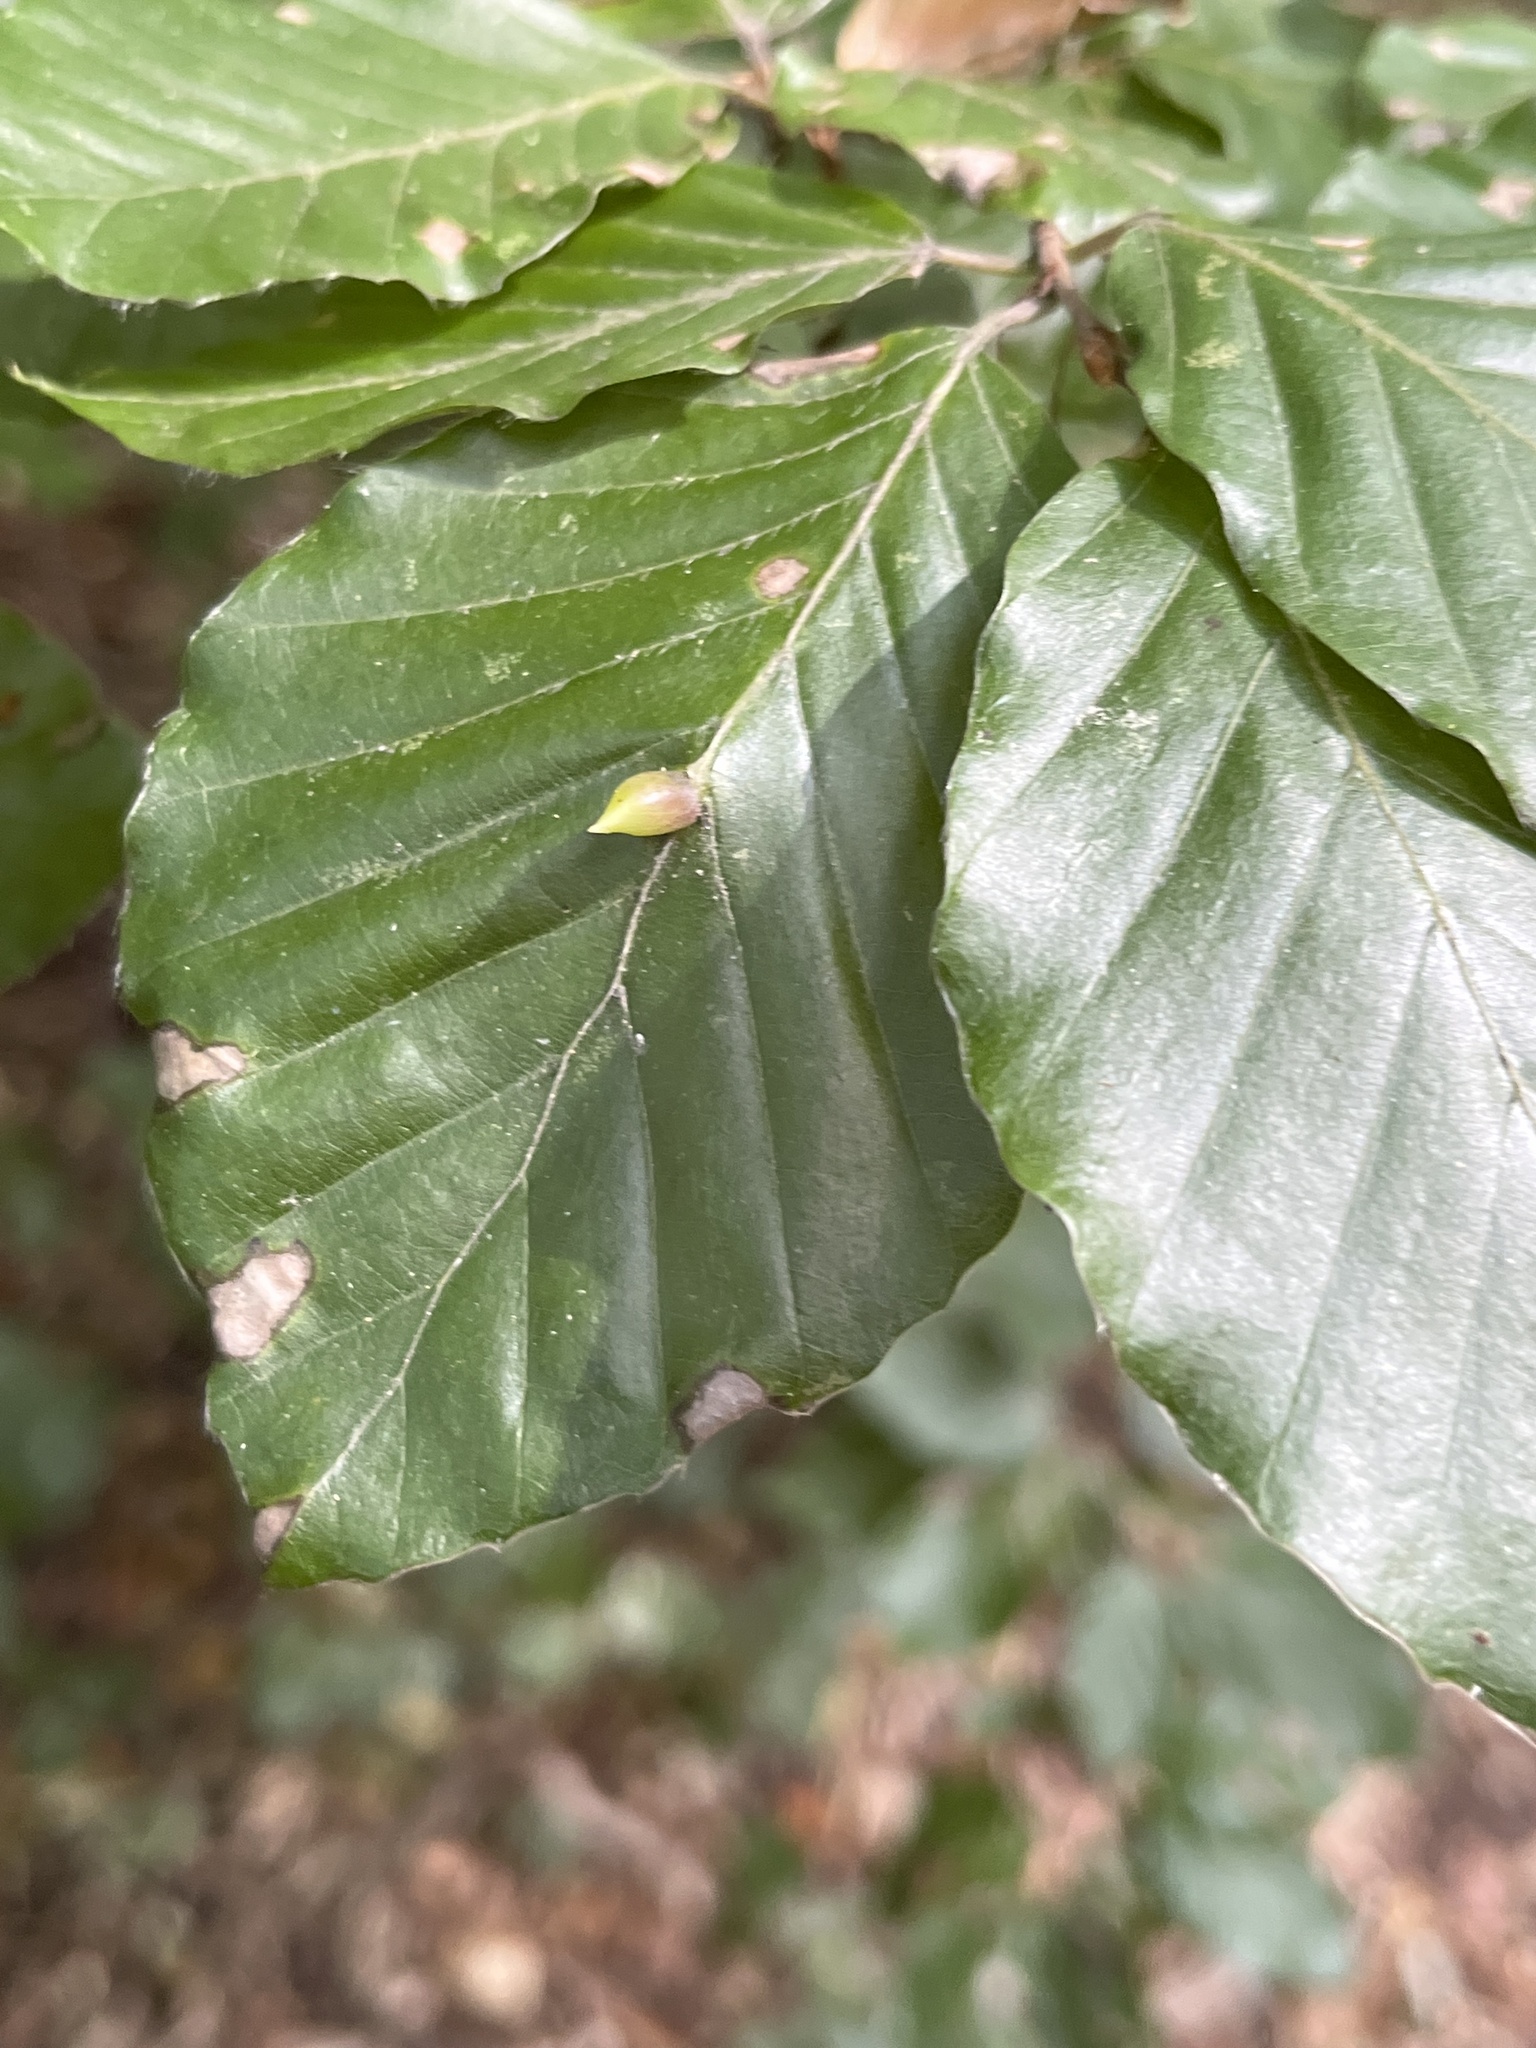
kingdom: Animalia
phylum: Arthropoda
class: Insecta
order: Diptera
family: Cecidomyiidae
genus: Mikiola
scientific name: Mikiola fagi
